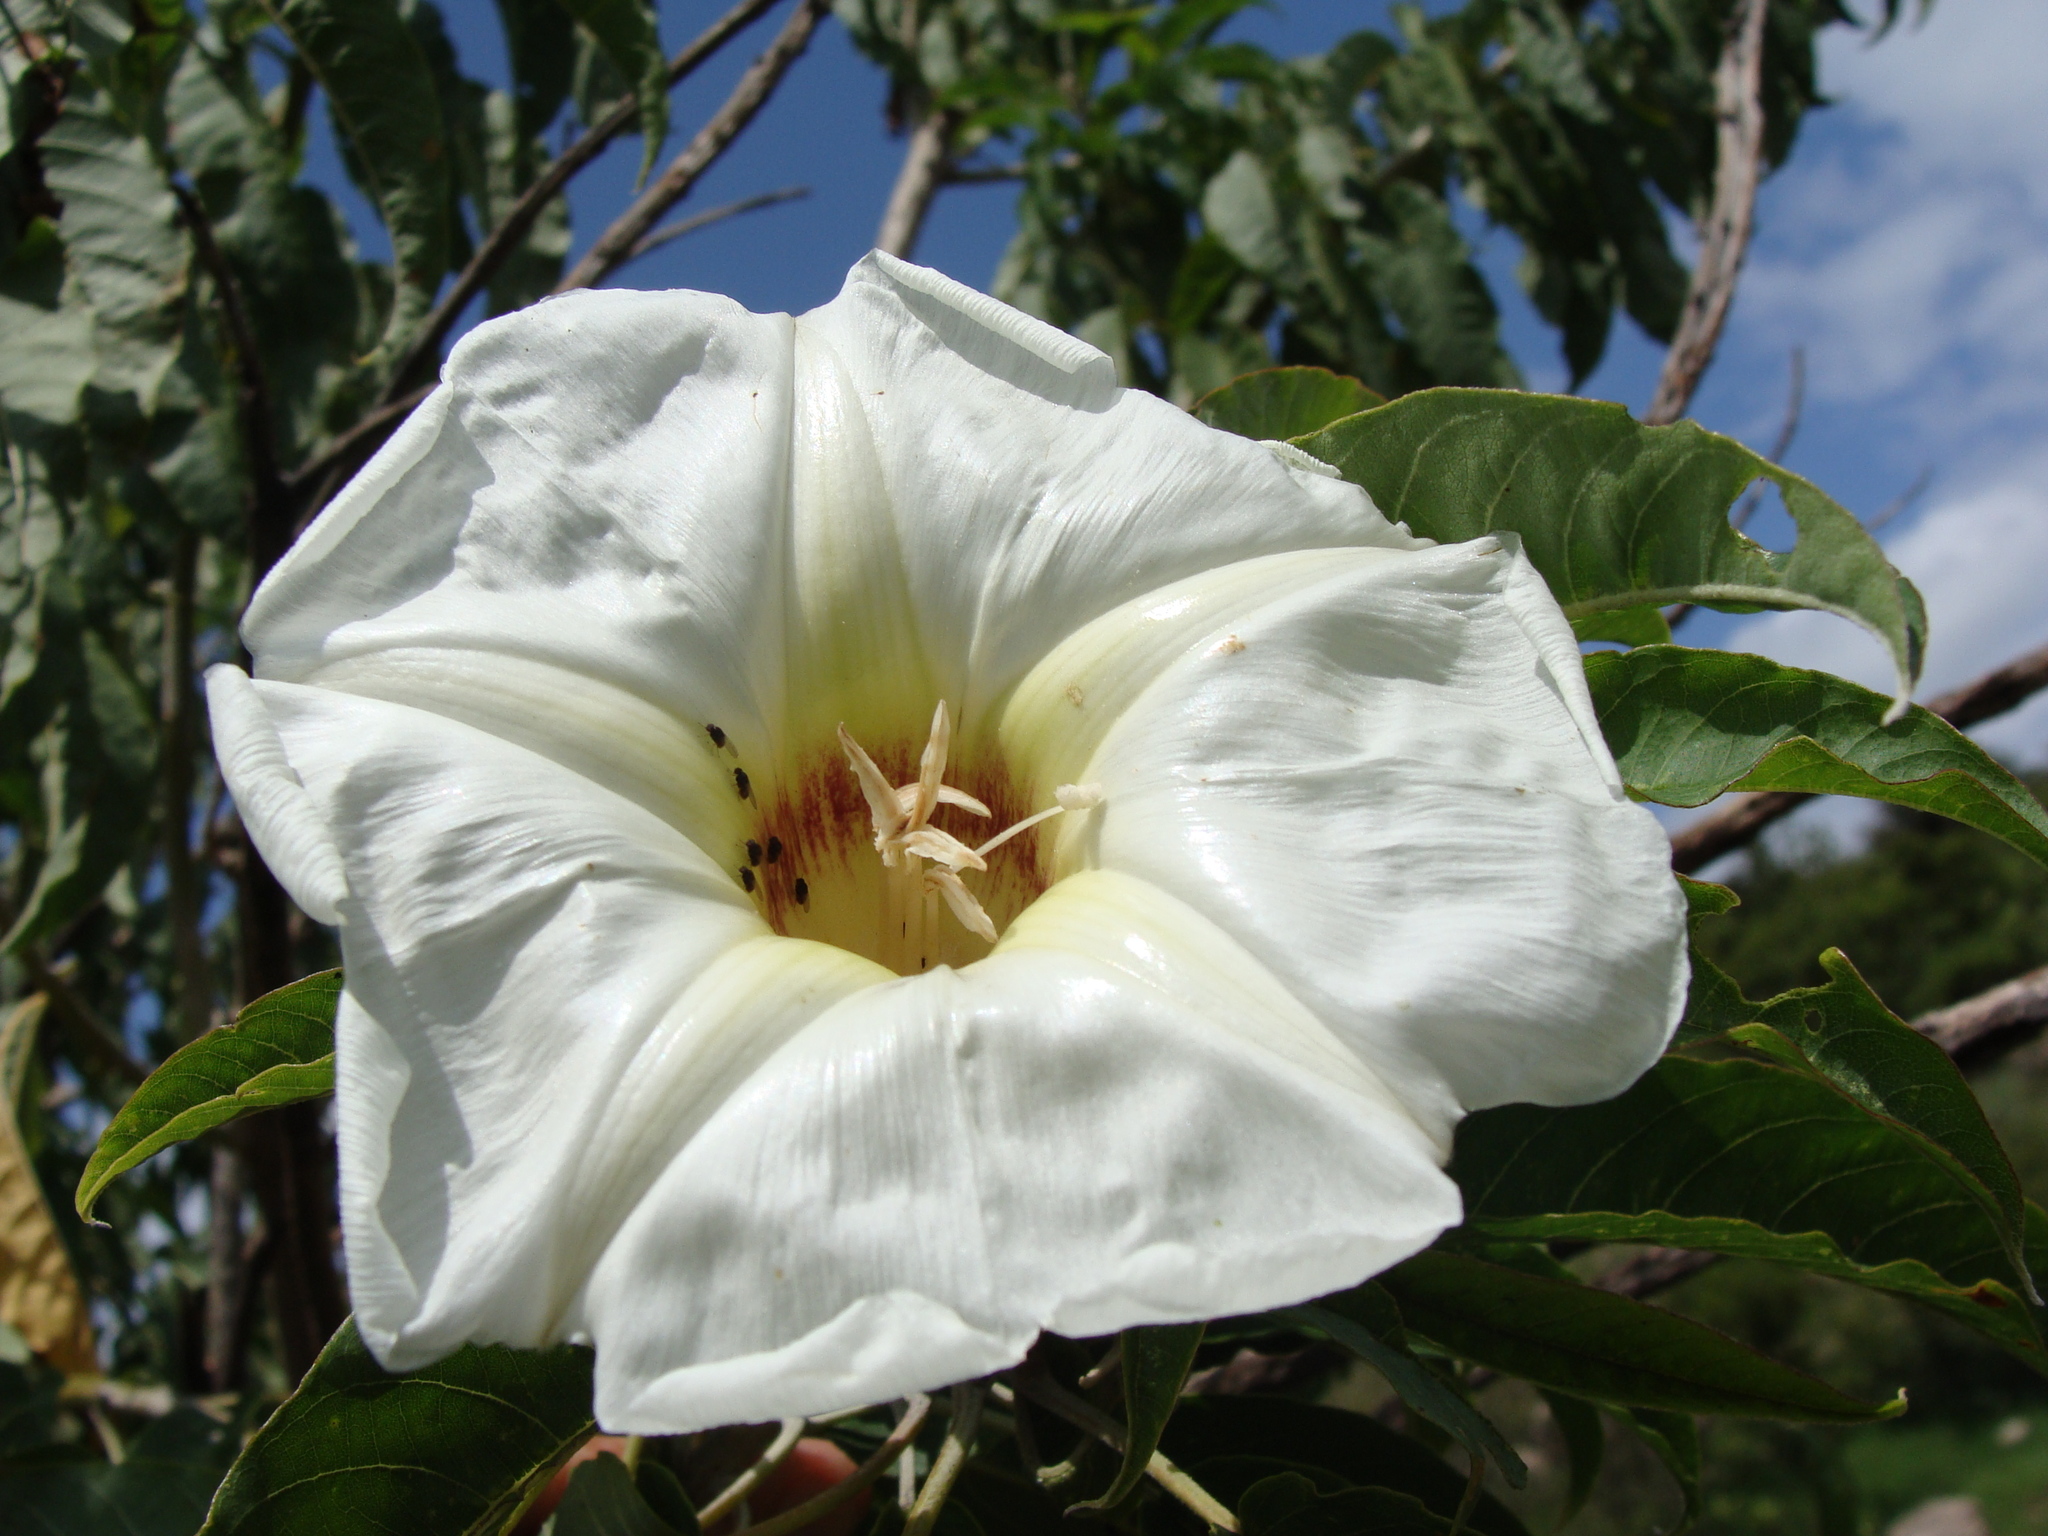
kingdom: Plantae
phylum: Tracheophyta
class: Magnoliopsida
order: Solanales
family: Convolvulaceae
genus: Ipomoea
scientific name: Ipomoea murucoides
